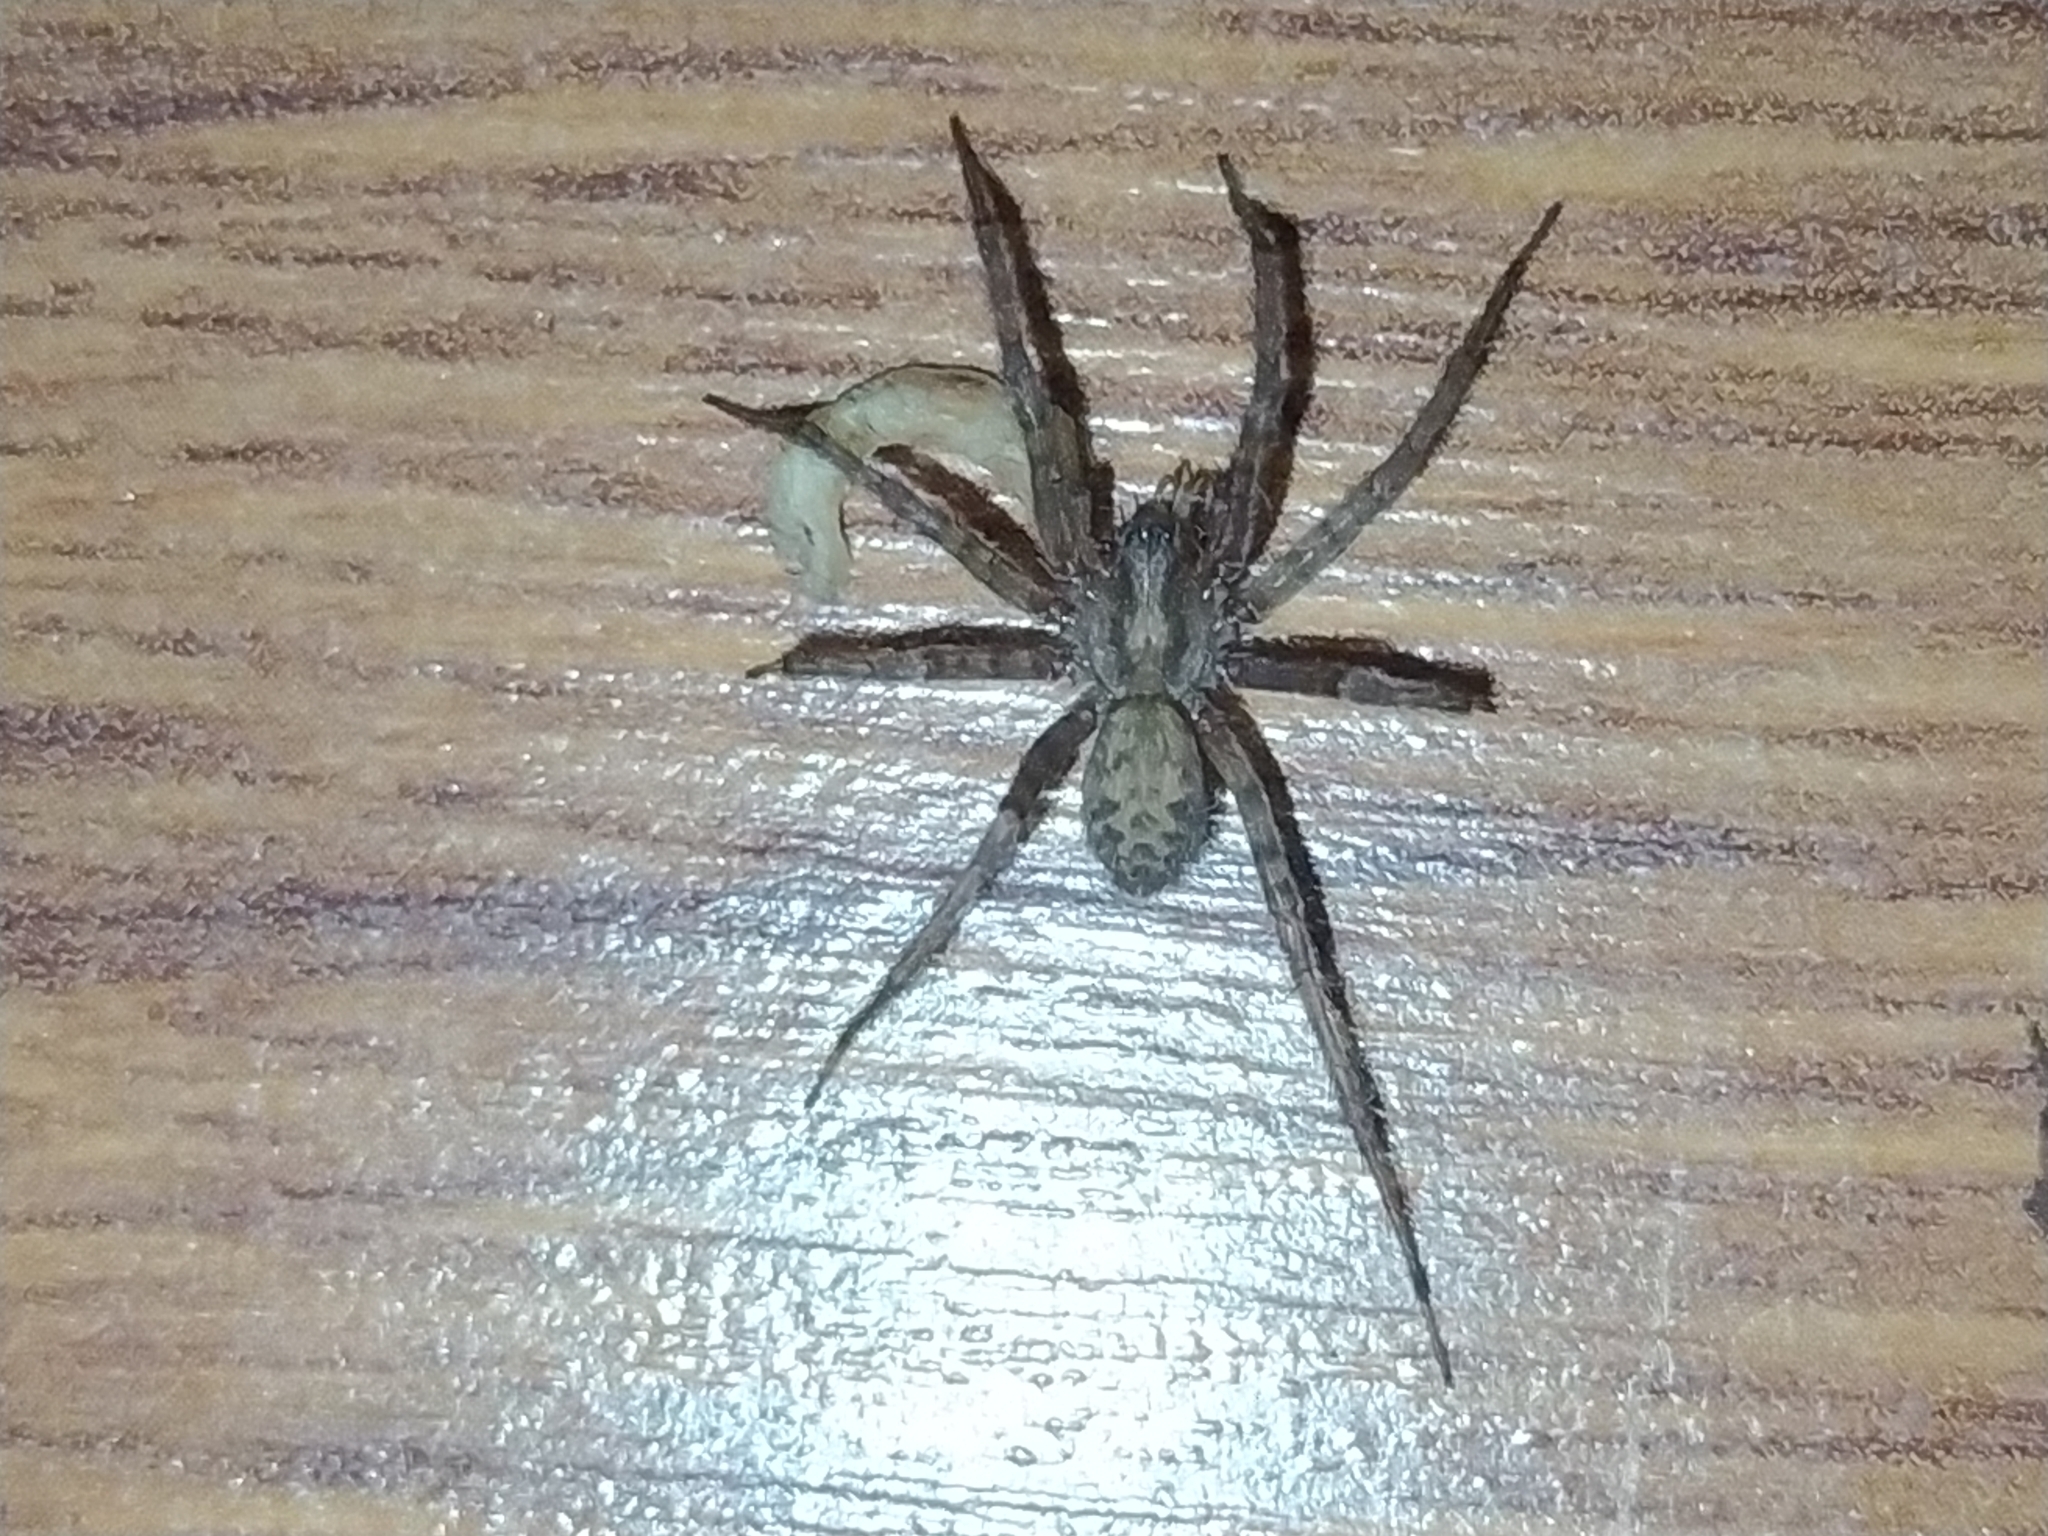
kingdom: Animalia
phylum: Arthropoda
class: Arachnida
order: Araneae
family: Agelenidae
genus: Tegenaria
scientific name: Tegenaria domestica
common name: Barn funnel weaver
